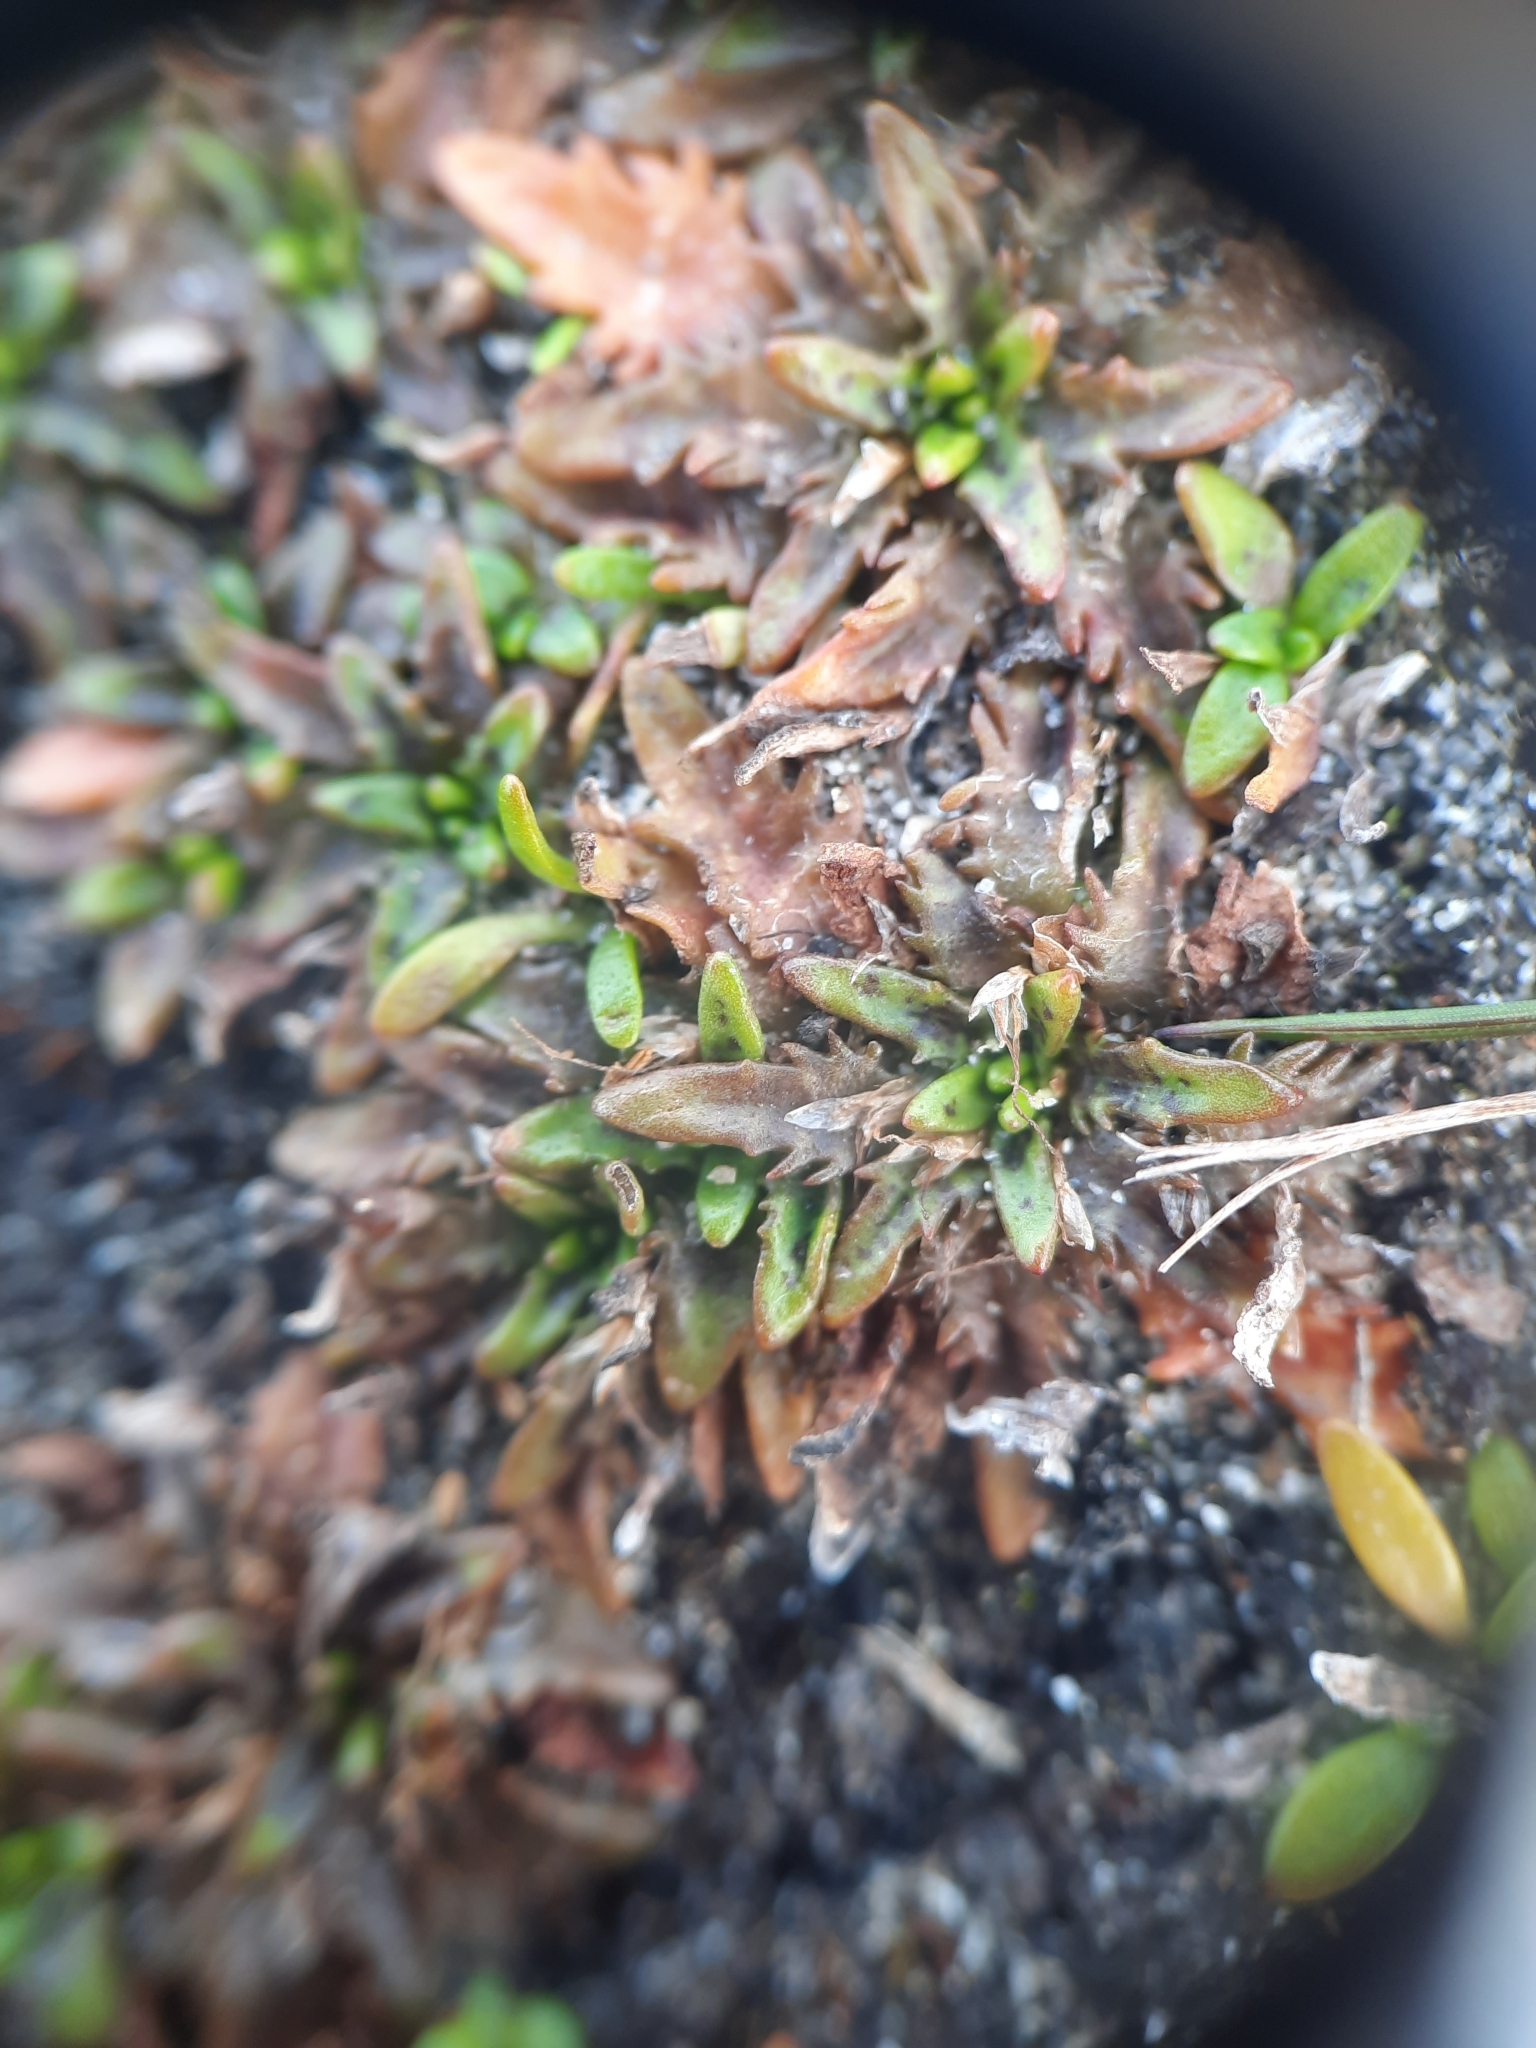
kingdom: Plantae
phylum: Tracheophyta
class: Magnoliopsida
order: Lamiales
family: Plantaginaceae
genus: Plantago
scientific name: Plantago triandra
